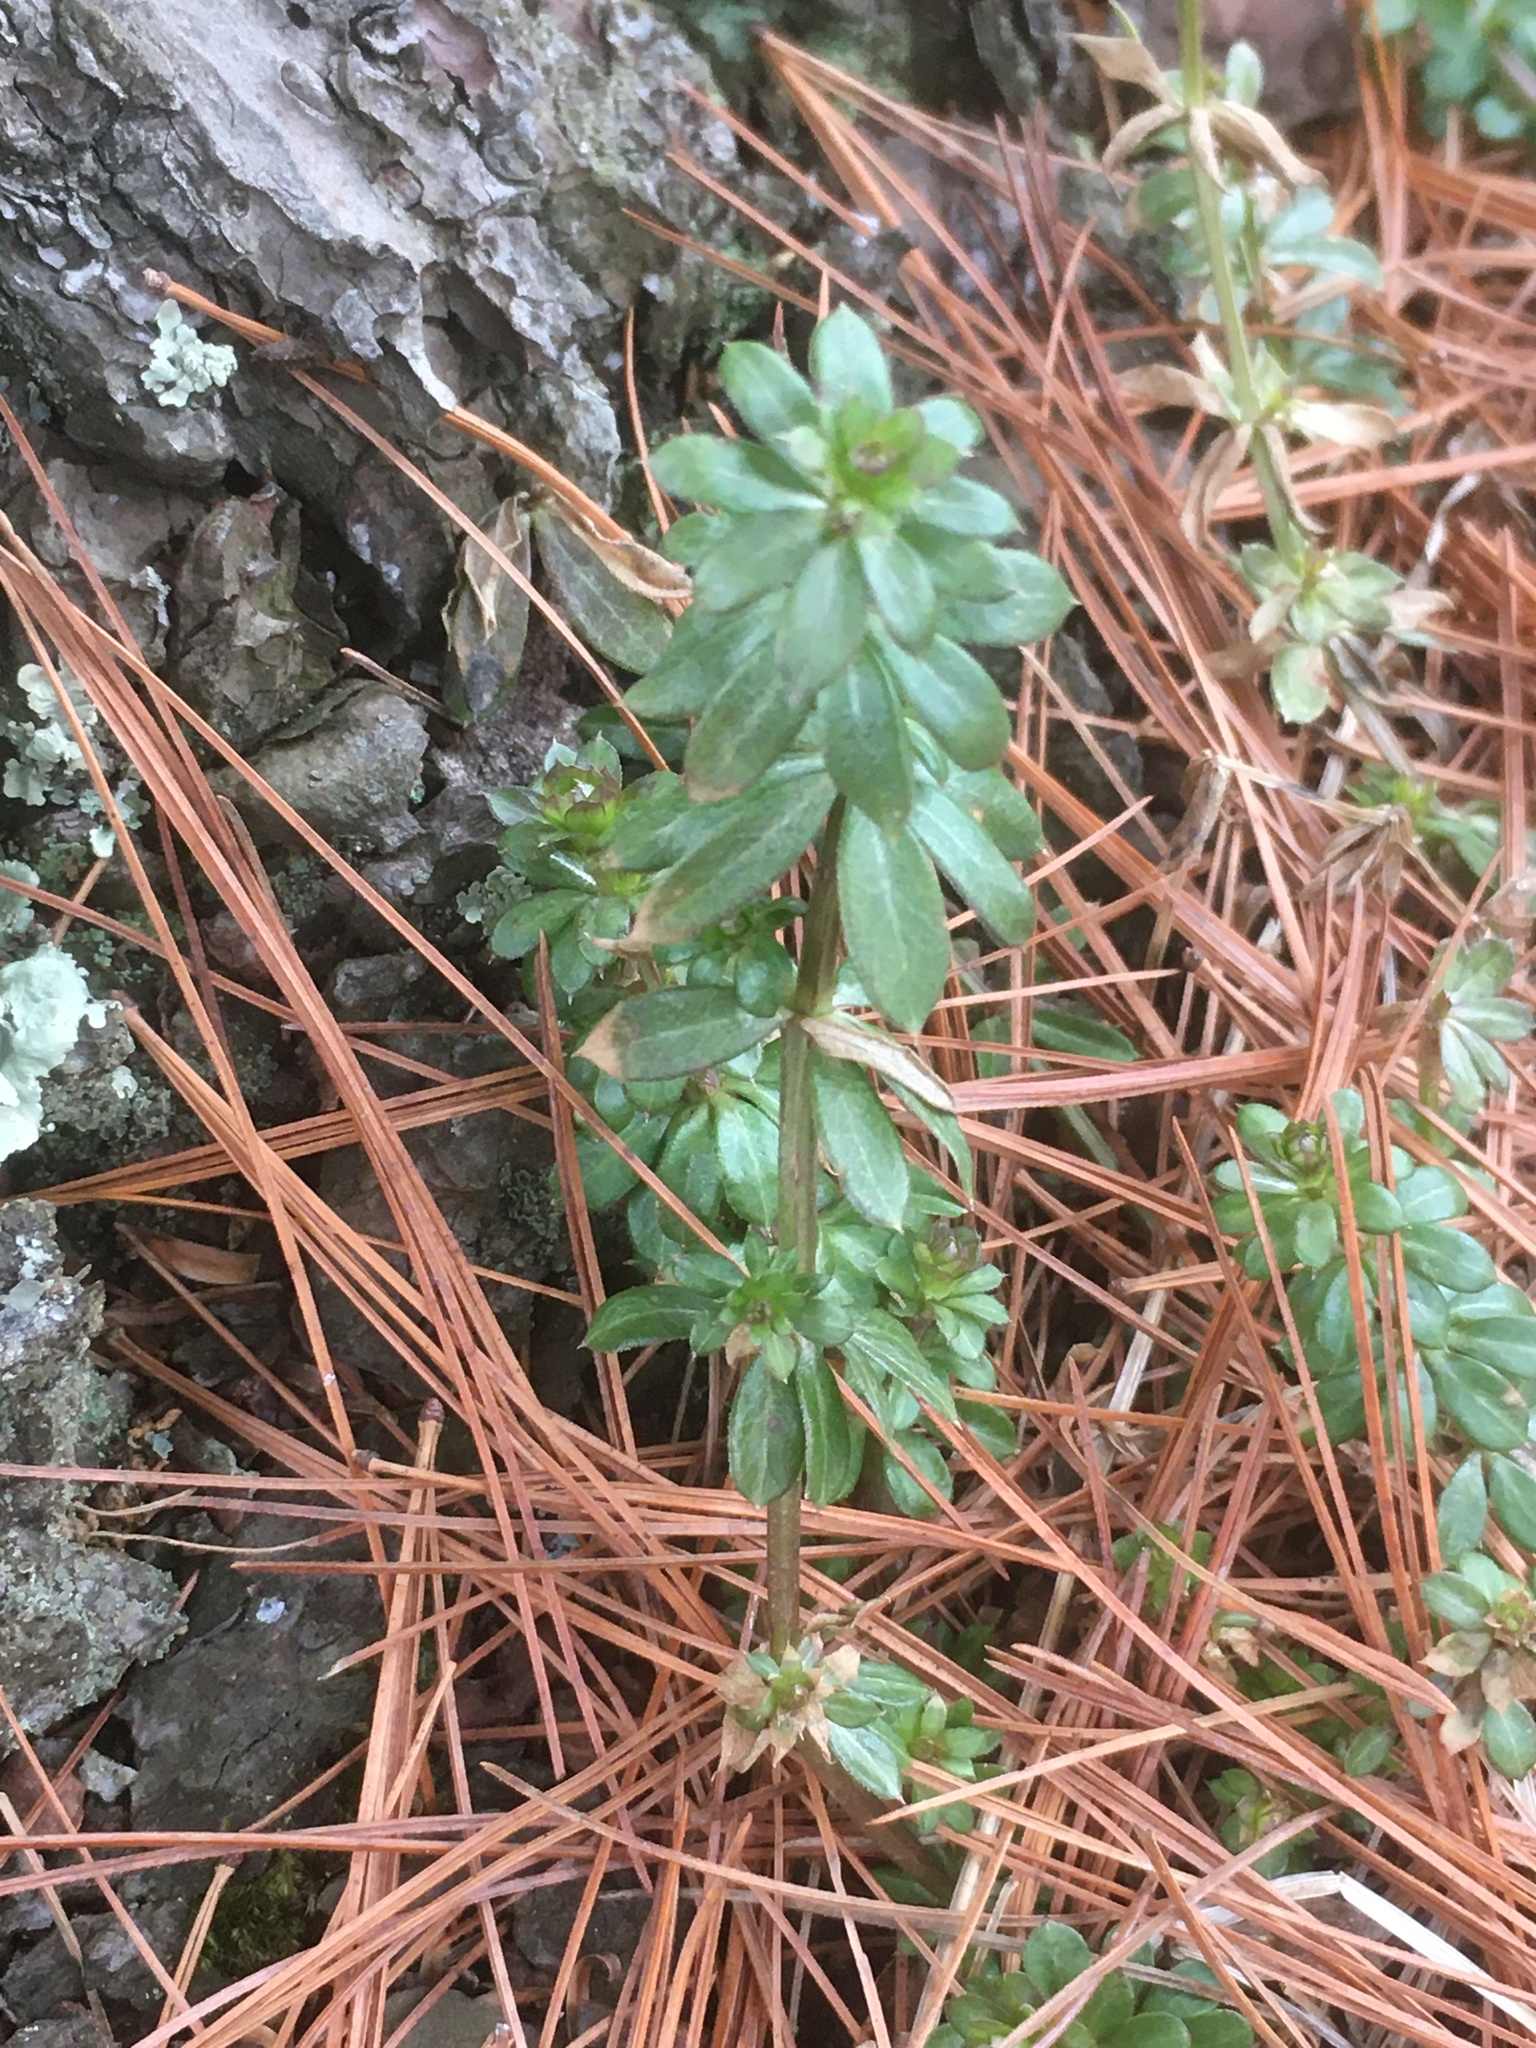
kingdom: Plantae
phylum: Tracheophyta
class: Magnoliopsida
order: Gentianales
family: Rubiaceae
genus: Galium
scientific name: Galium mollugo
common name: Hedge bedstraw
